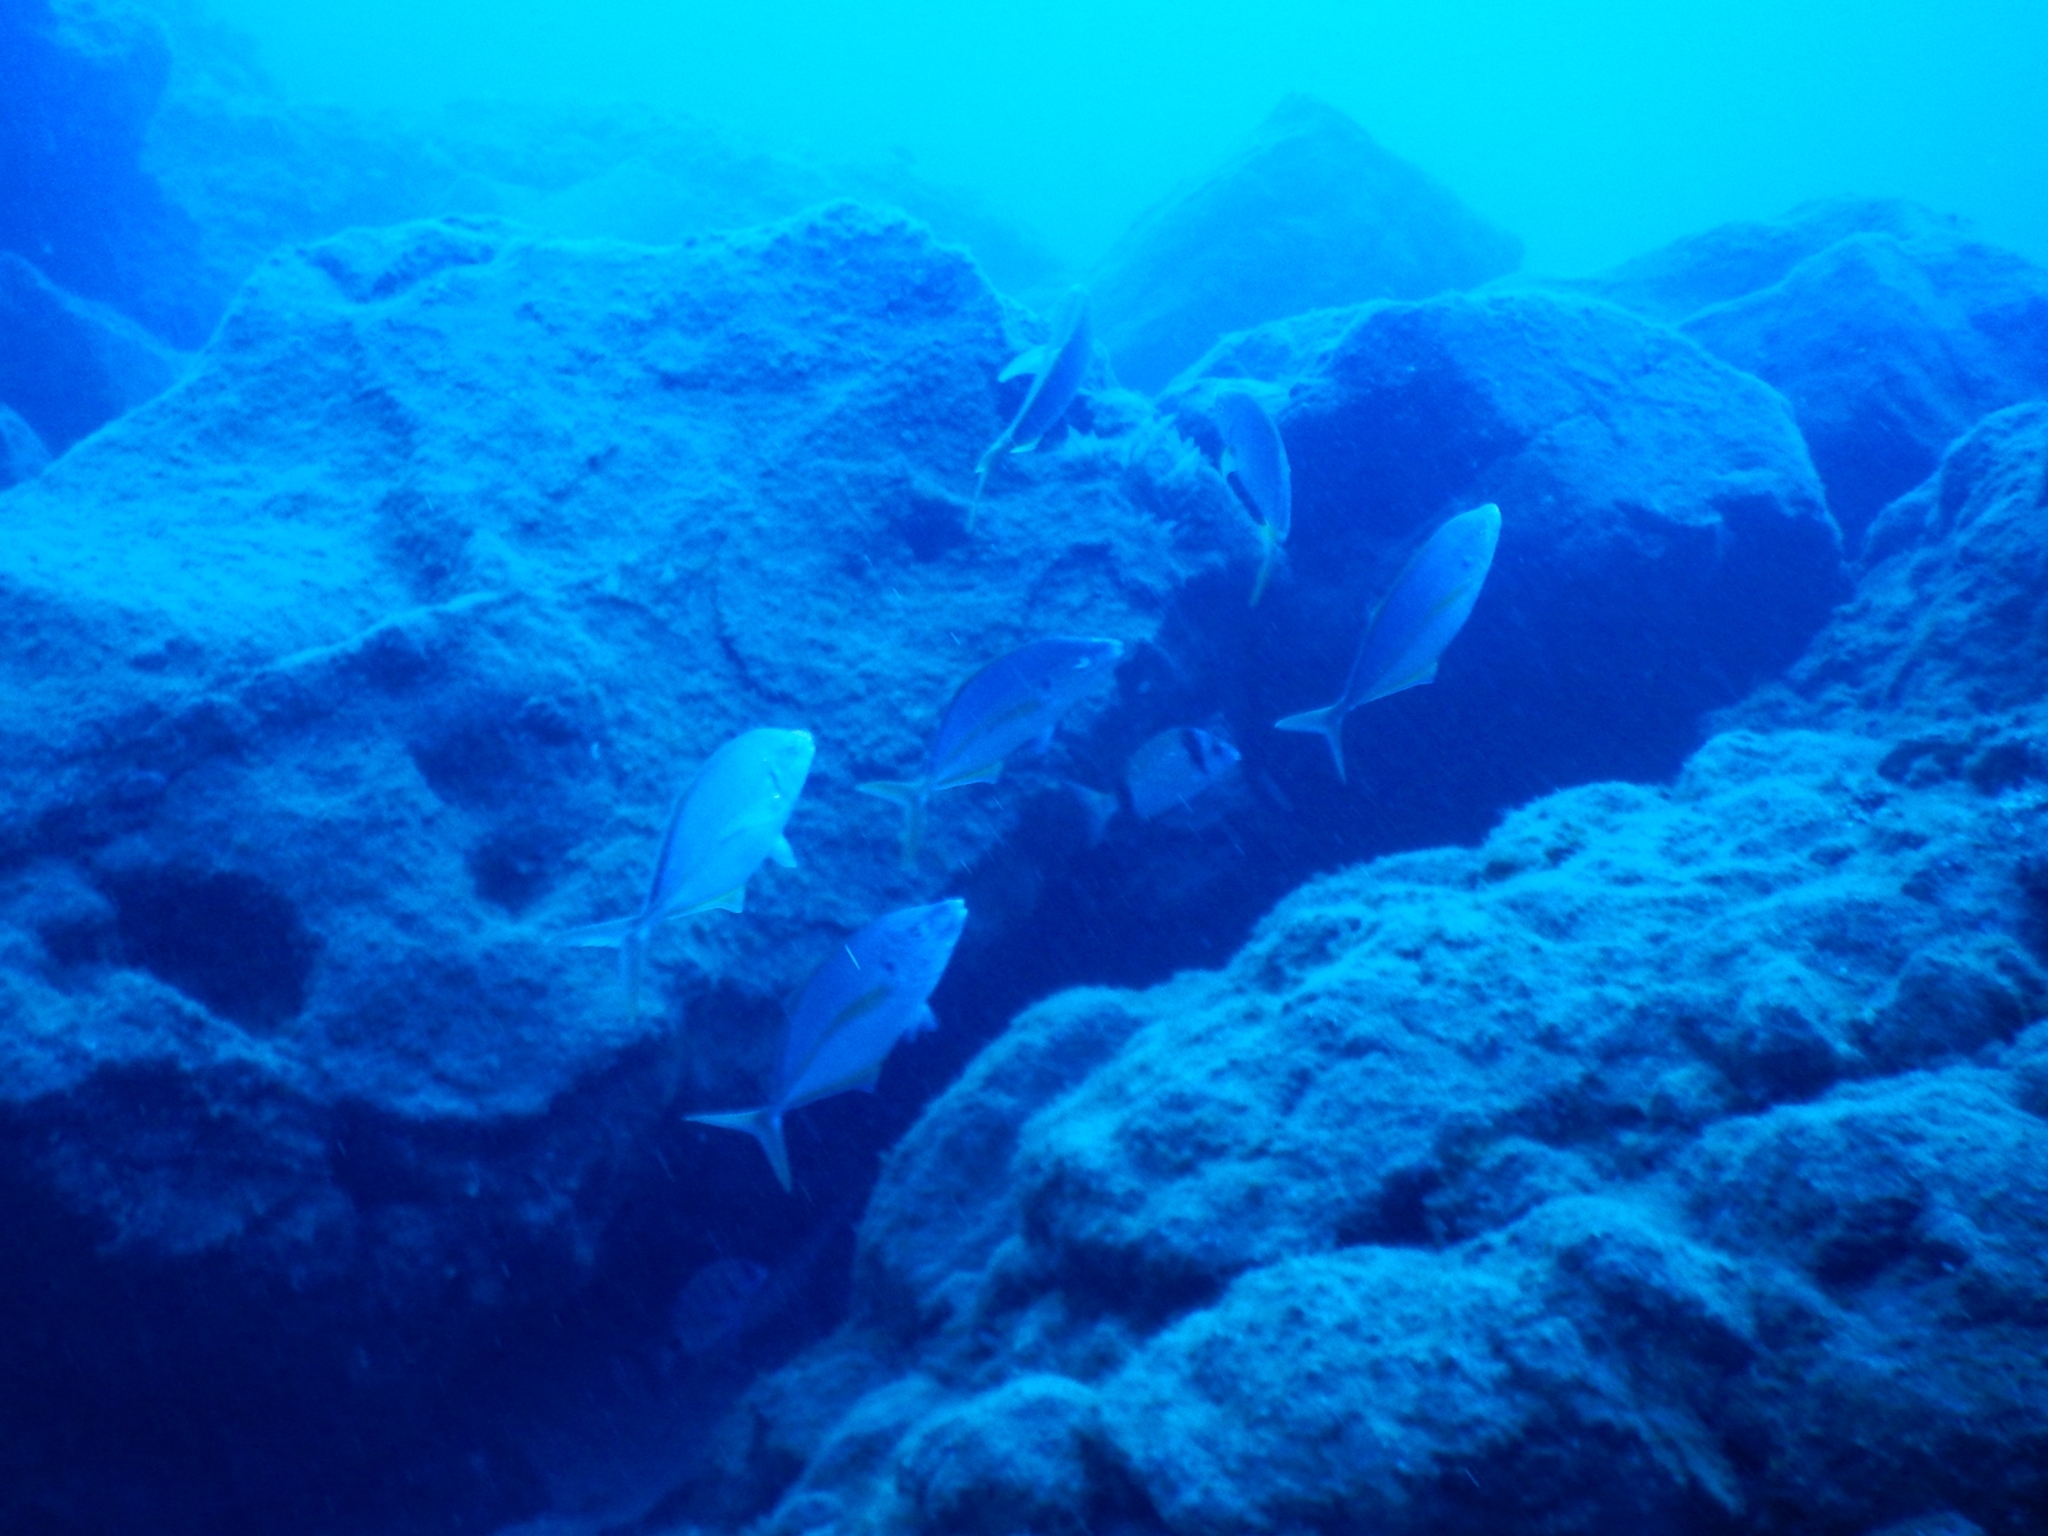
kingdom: Animalia
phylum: Chordata
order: Perciformes
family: Carangidae
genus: Pseudocaranx
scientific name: Pseudocaranx dentex
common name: White trevally
